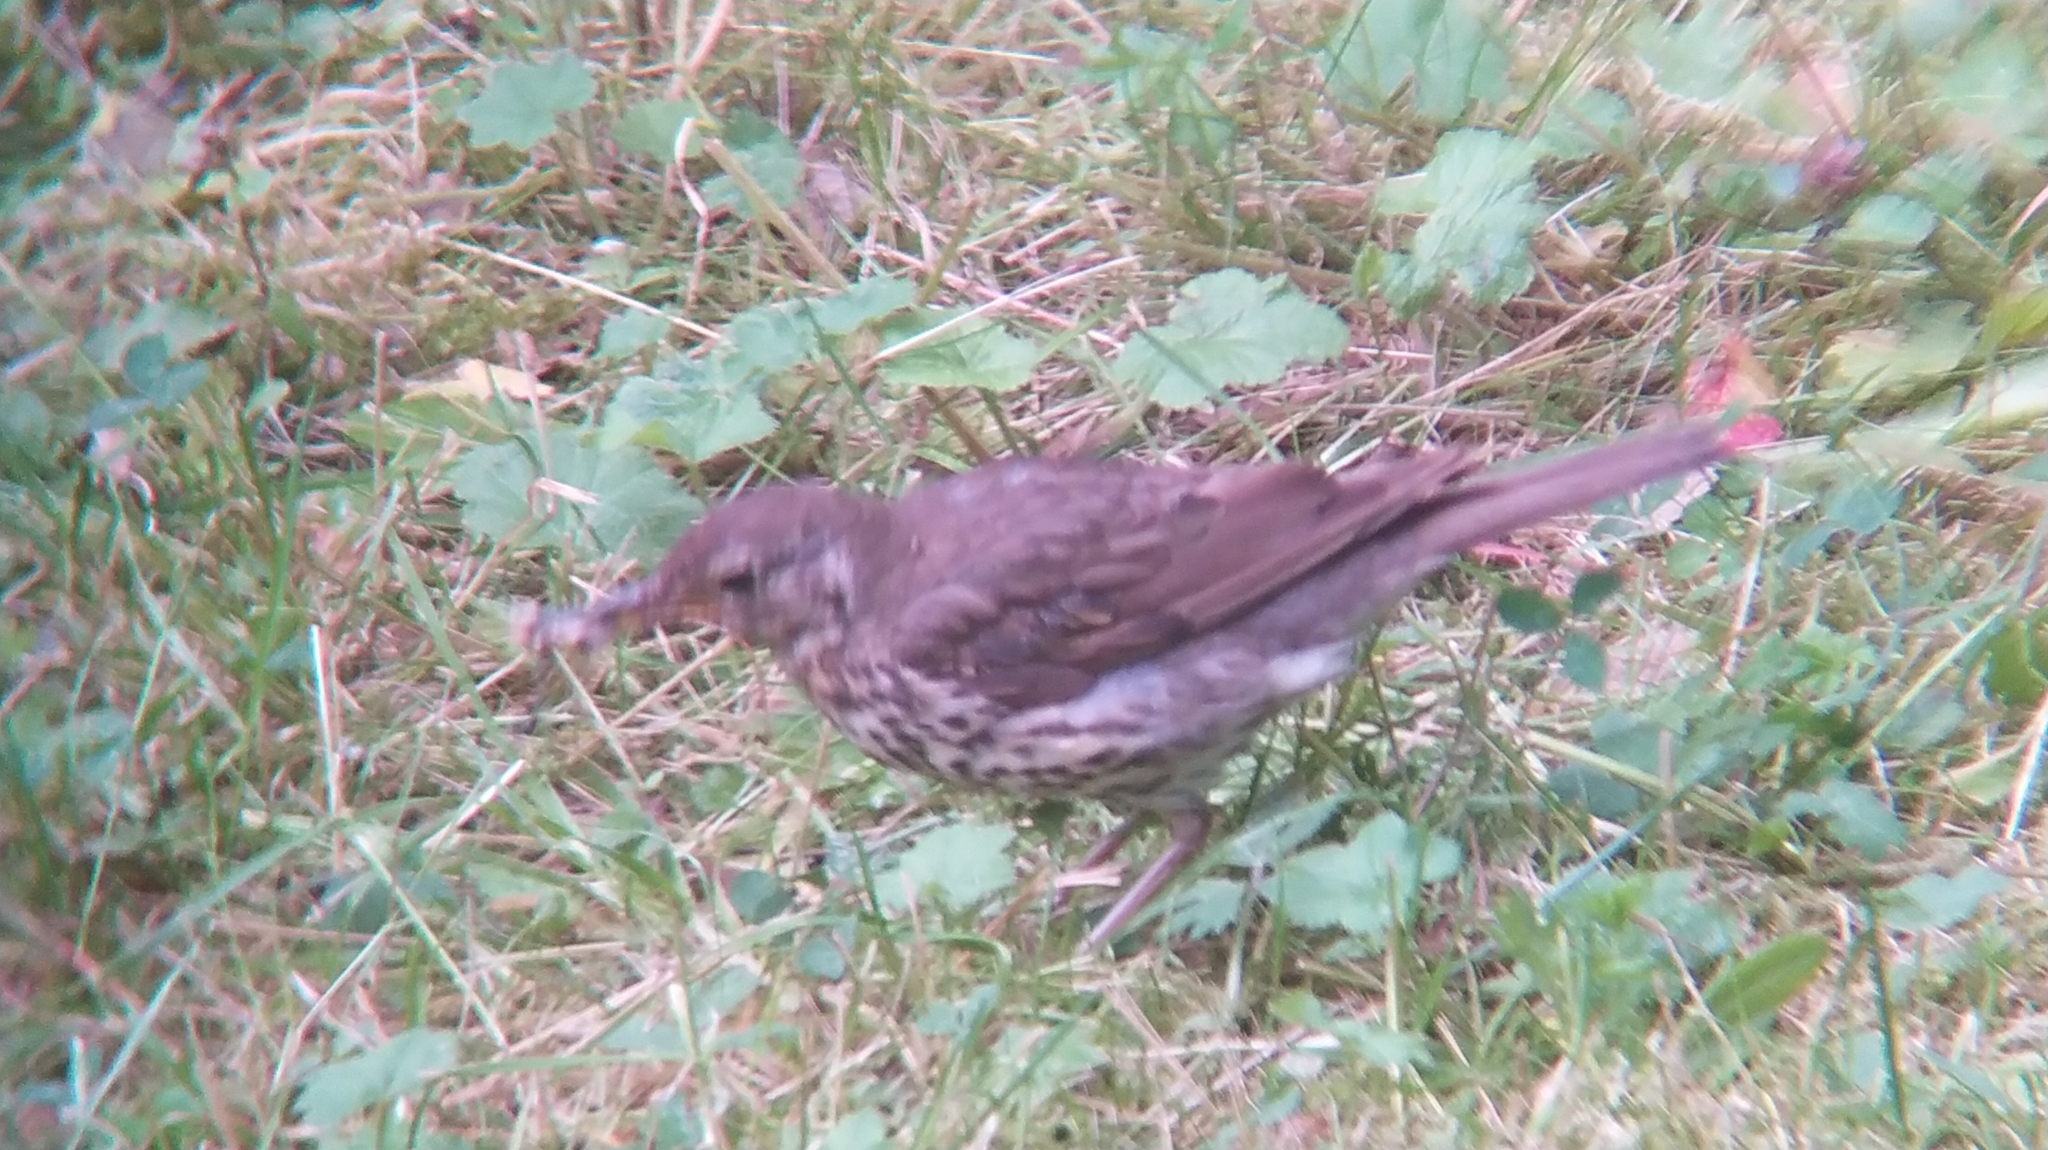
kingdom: Animalia
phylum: Chordata
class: Aves
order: Passeriformes
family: Turdidae
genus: Turdus
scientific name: Turdus philomelos
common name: Song thrush
